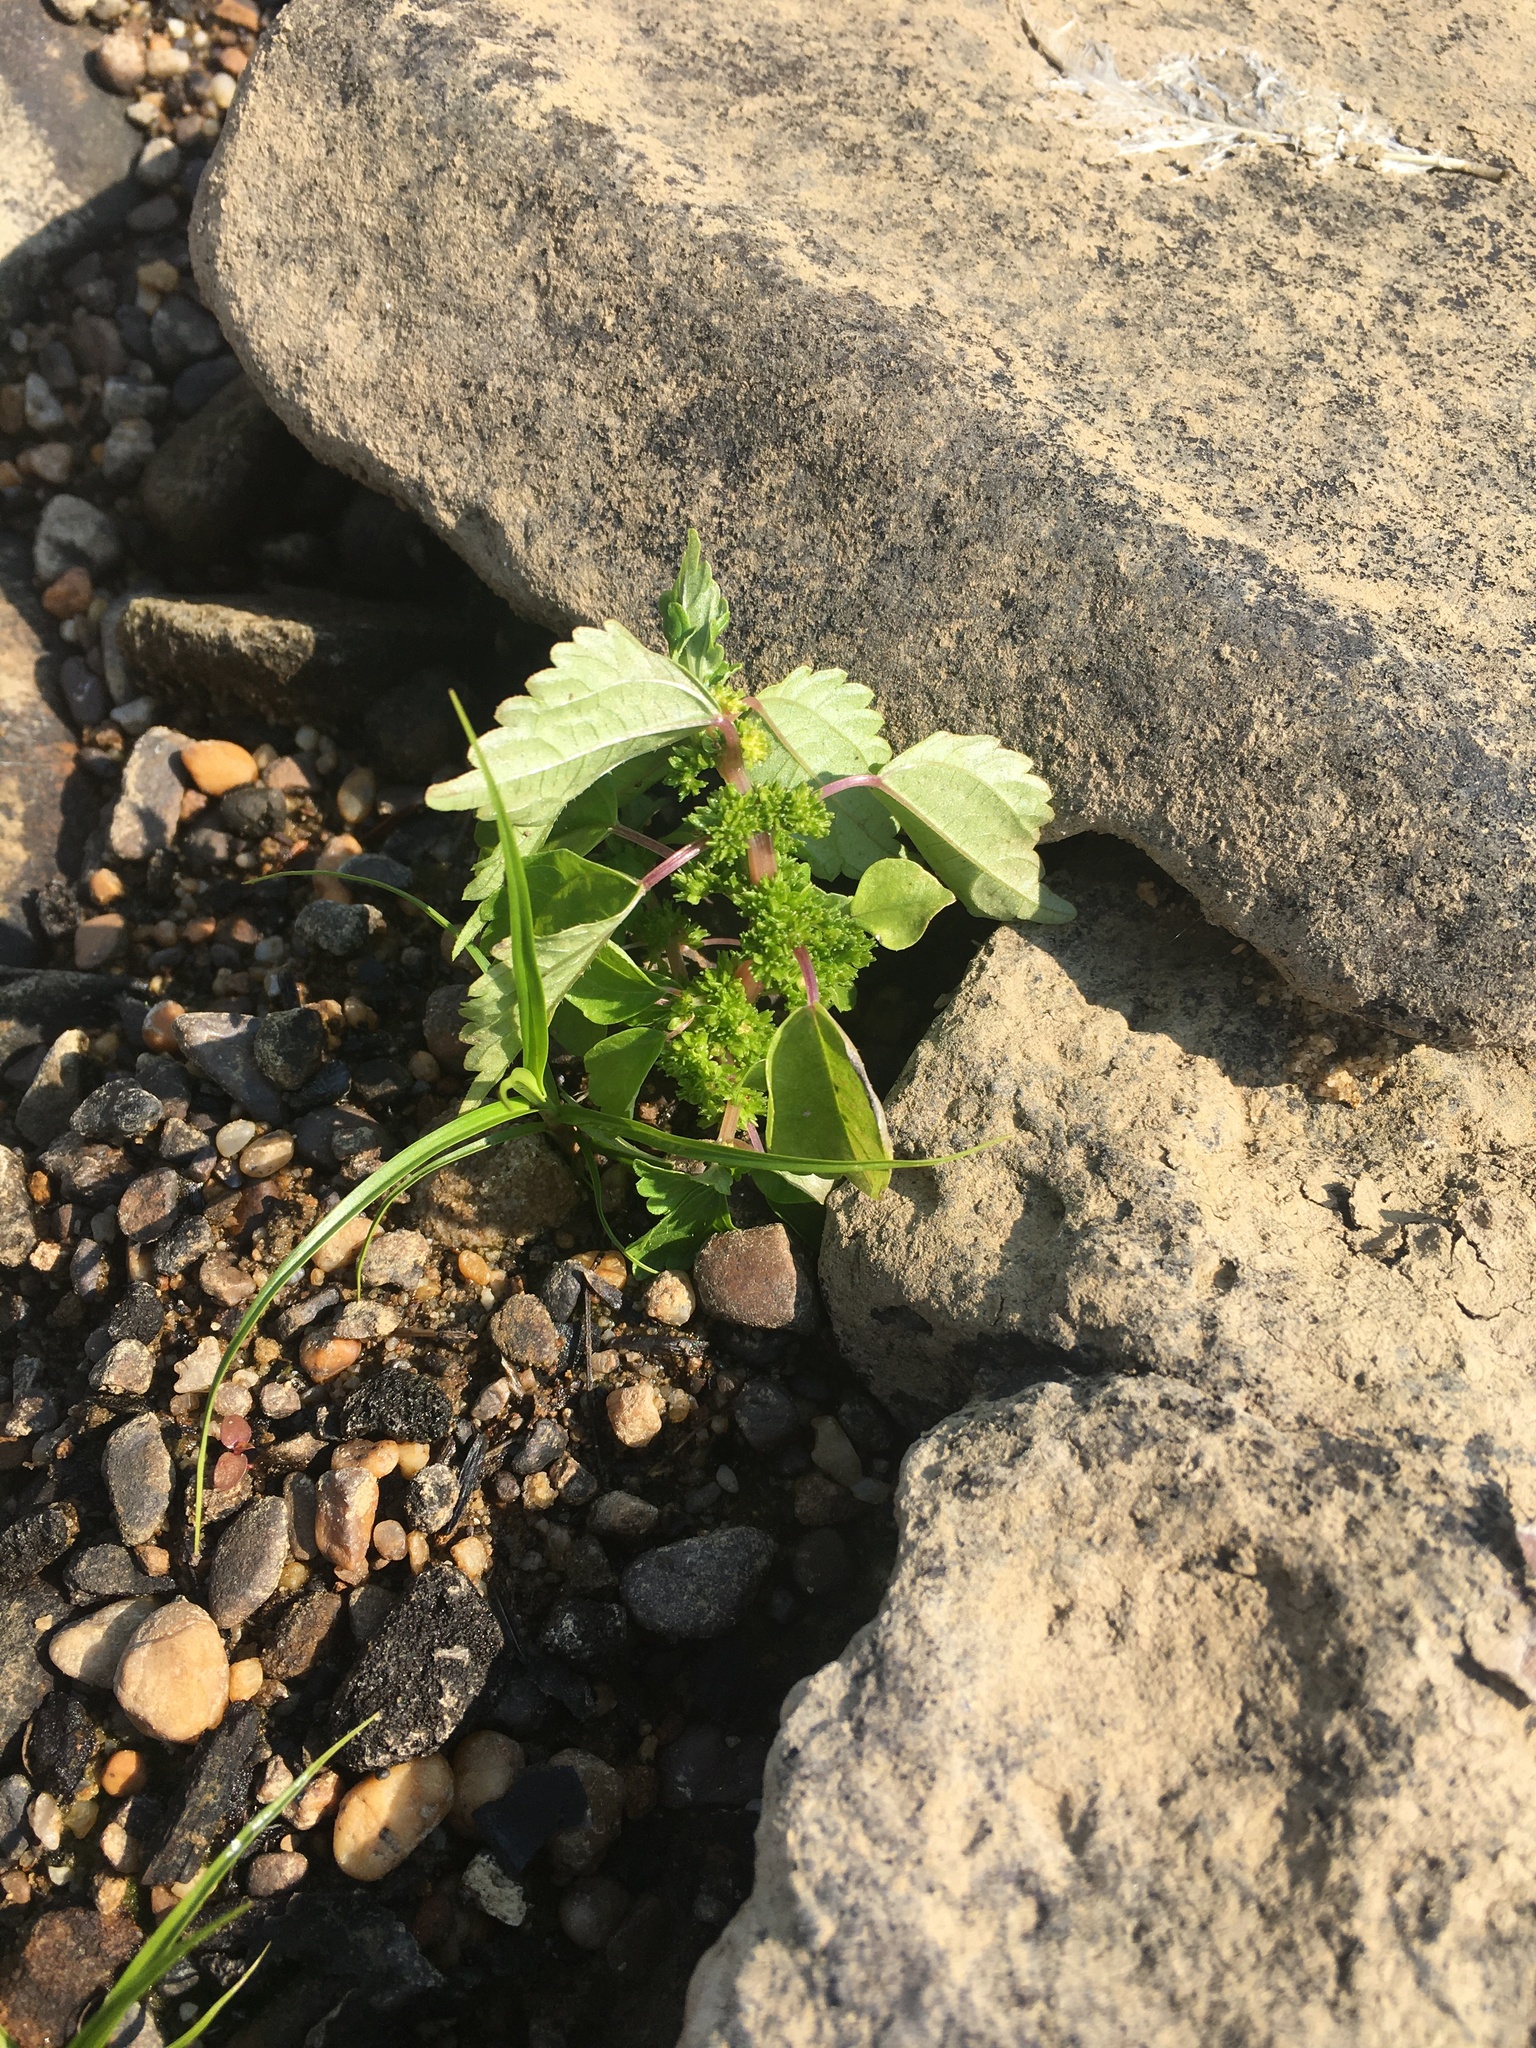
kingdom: Plantae
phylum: Tracheophyta
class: Magnoliopsida
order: Rosales
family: Urticaceae
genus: Pilea
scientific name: Pilea pumila
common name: Clearweed
